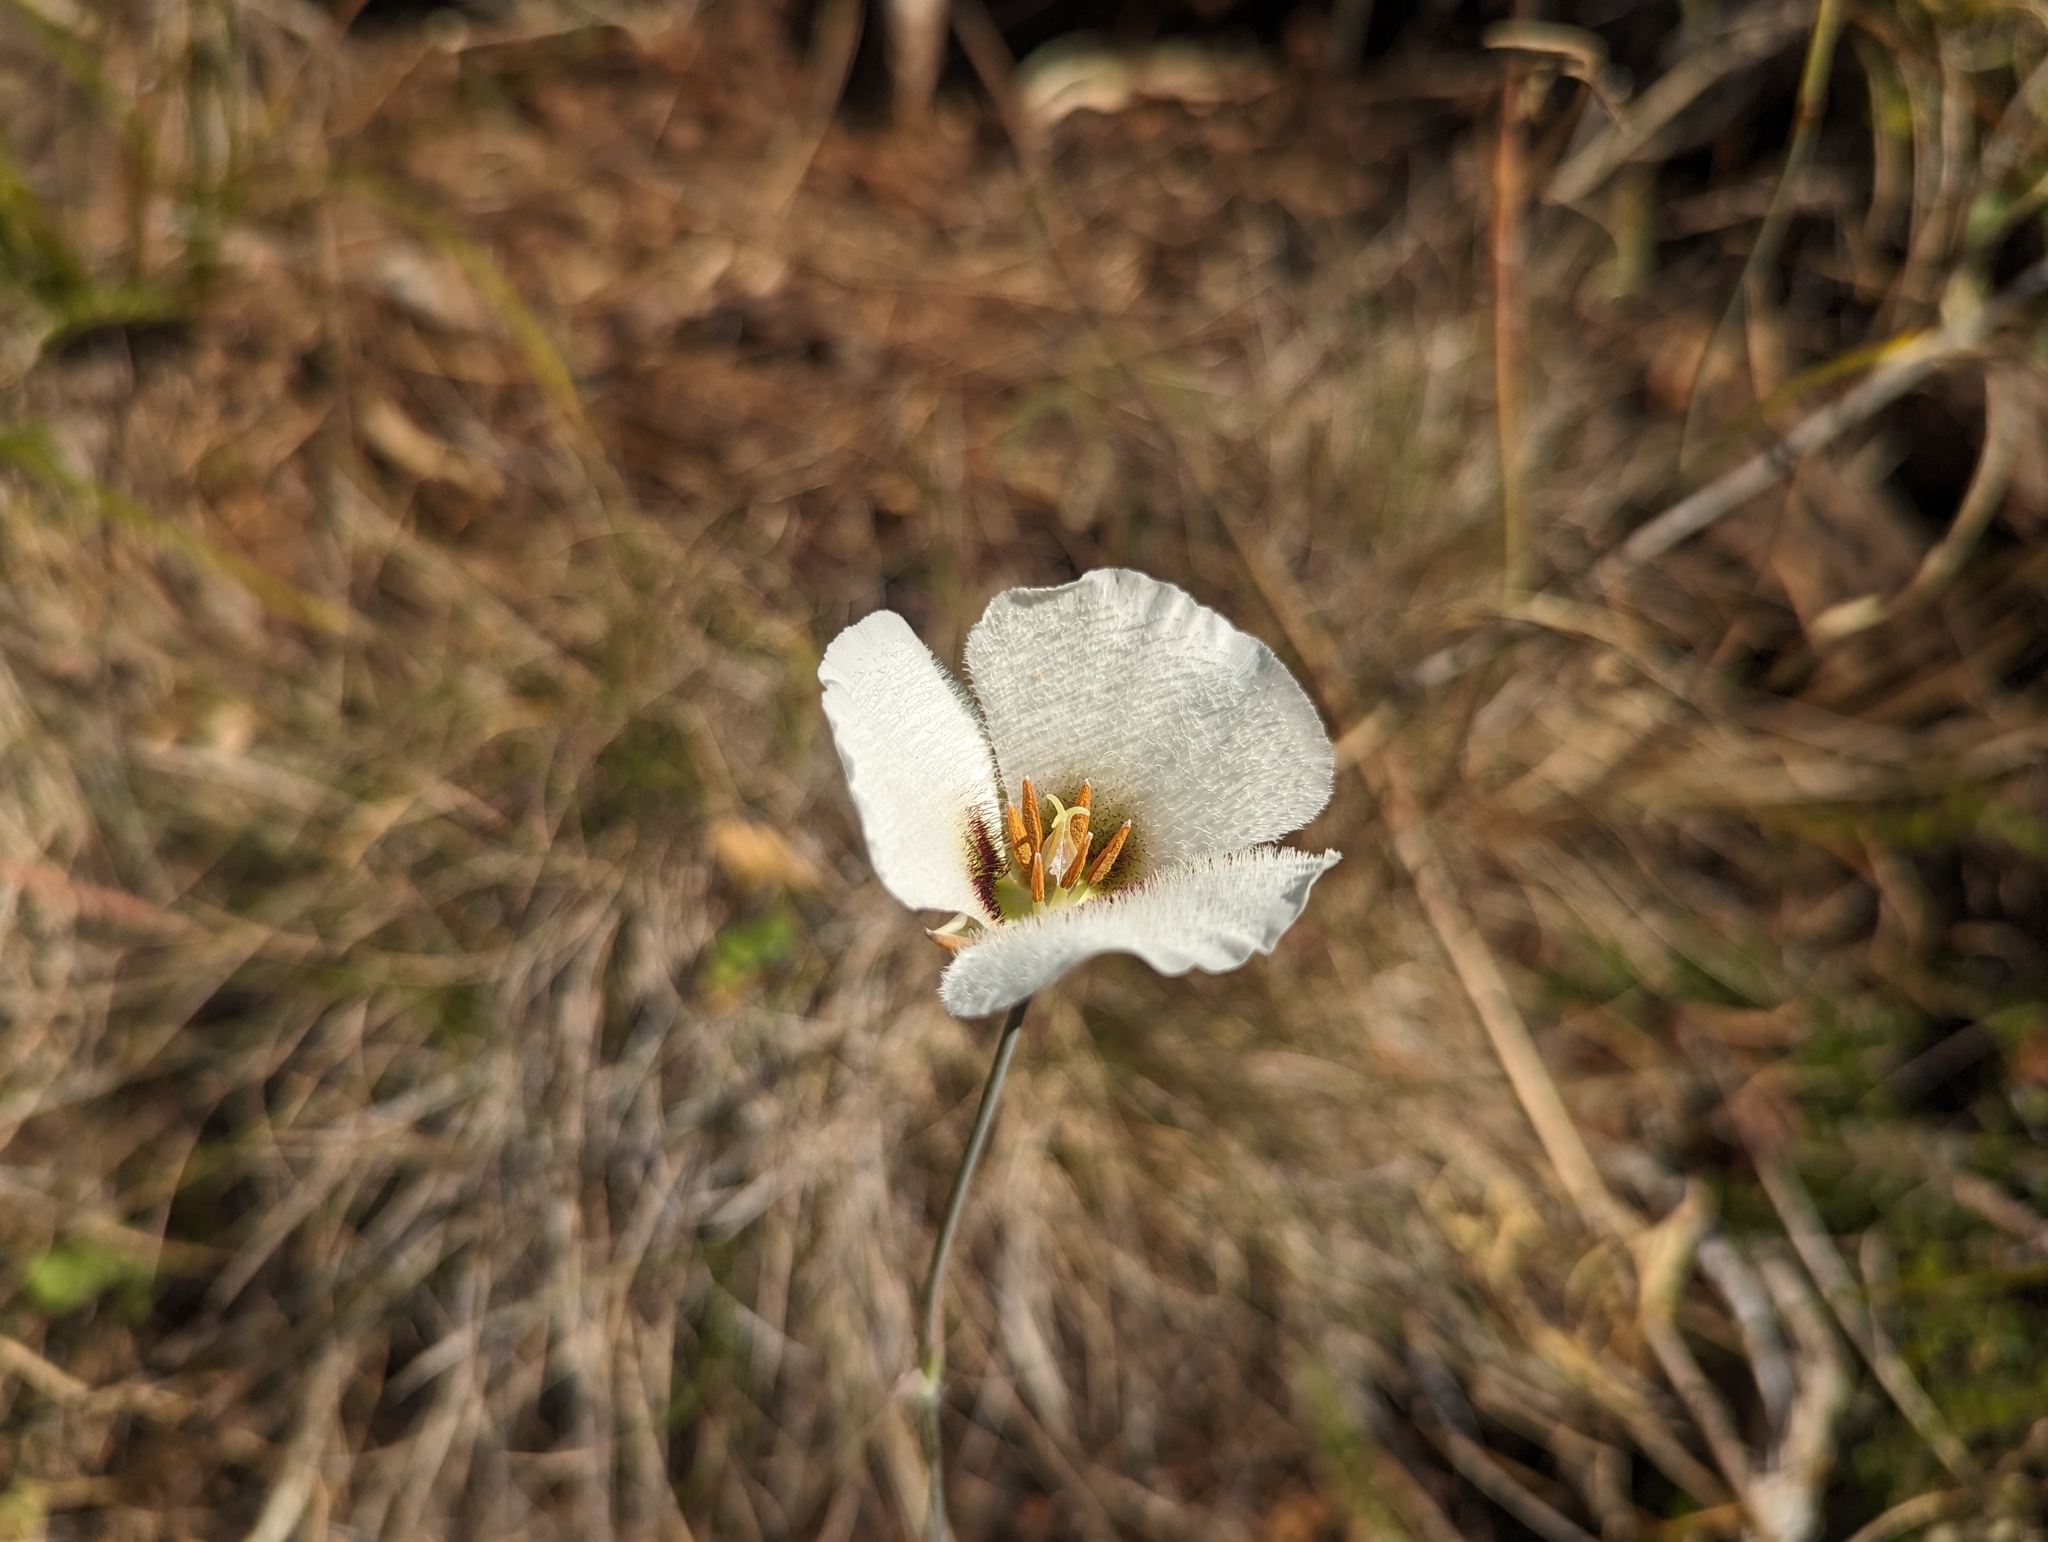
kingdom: Plantae
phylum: Tracheophyta
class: Liliopsida
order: Liliales
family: Liliaceae
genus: Calochortus
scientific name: Calochortus howellii
